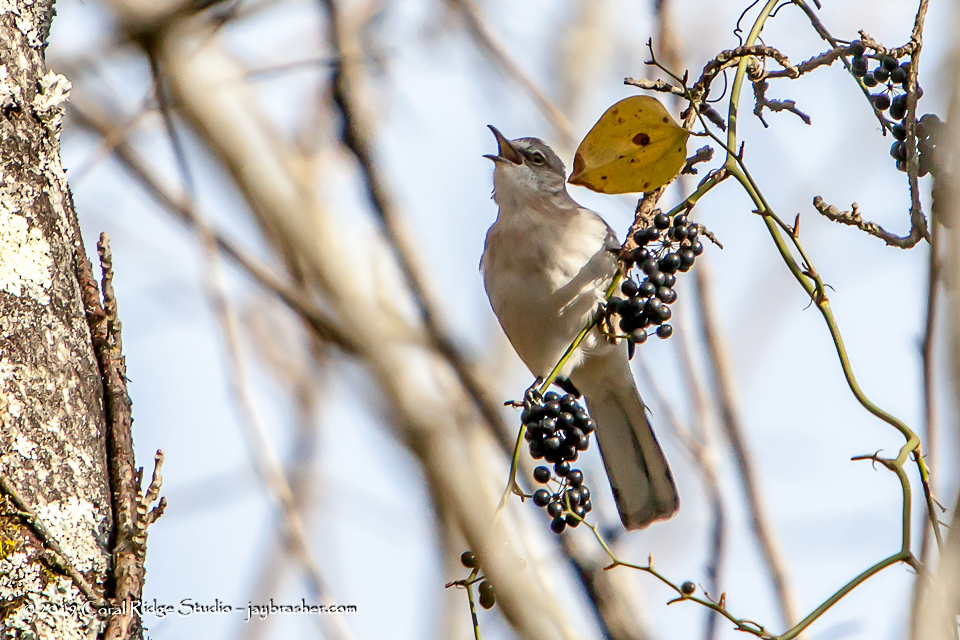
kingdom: Animalia
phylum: Chordata
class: Aves
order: Passeriformes
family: Mimidae
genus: Mimus
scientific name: Mimus polyglottos
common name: Northern mockingbird
